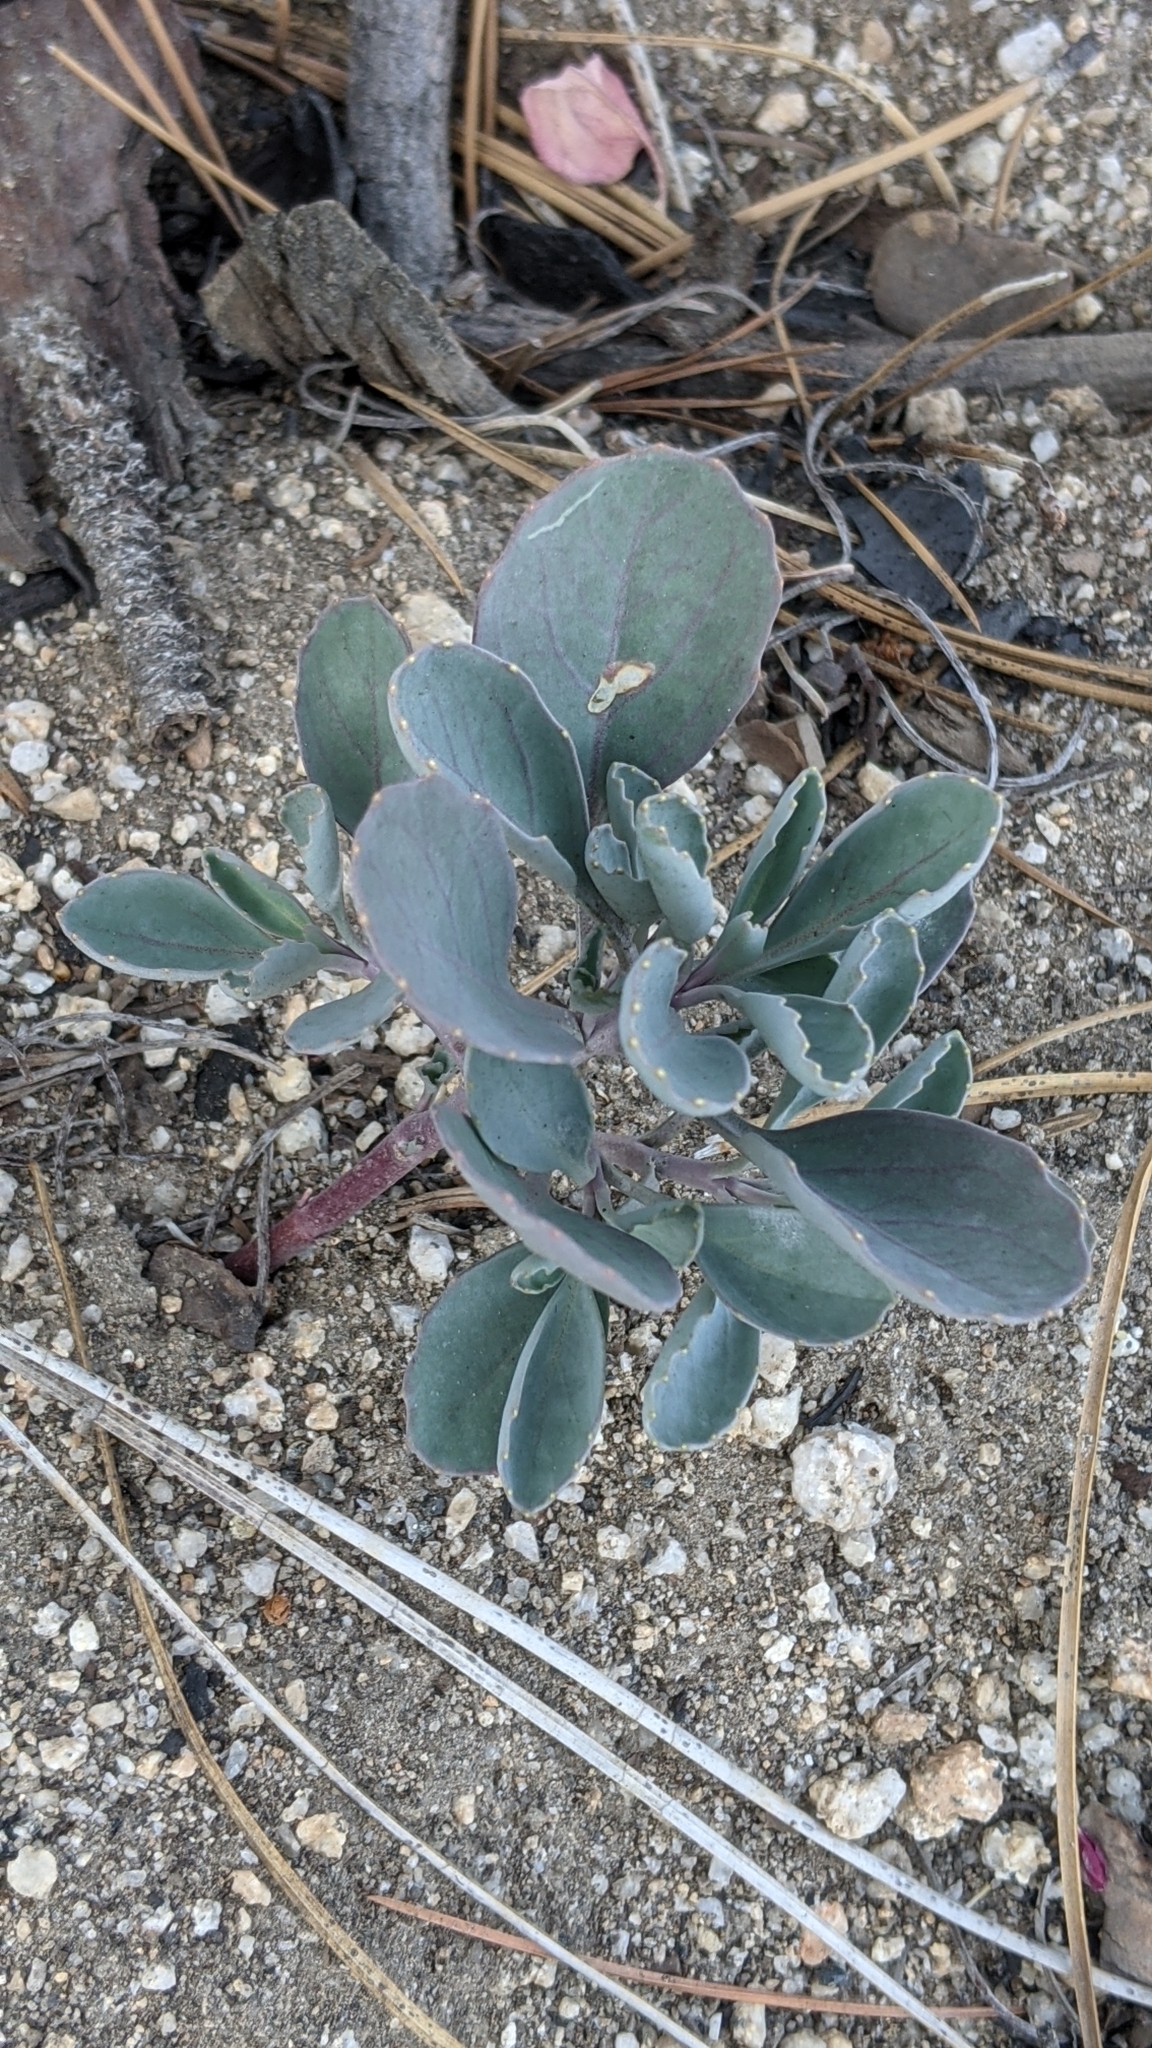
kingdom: Plantae
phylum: Tracheophyta
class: Magnoliopsida
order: Brassicales
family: Brassicaceae
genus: Streptanthus
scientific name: Streptanthus tortuosus
